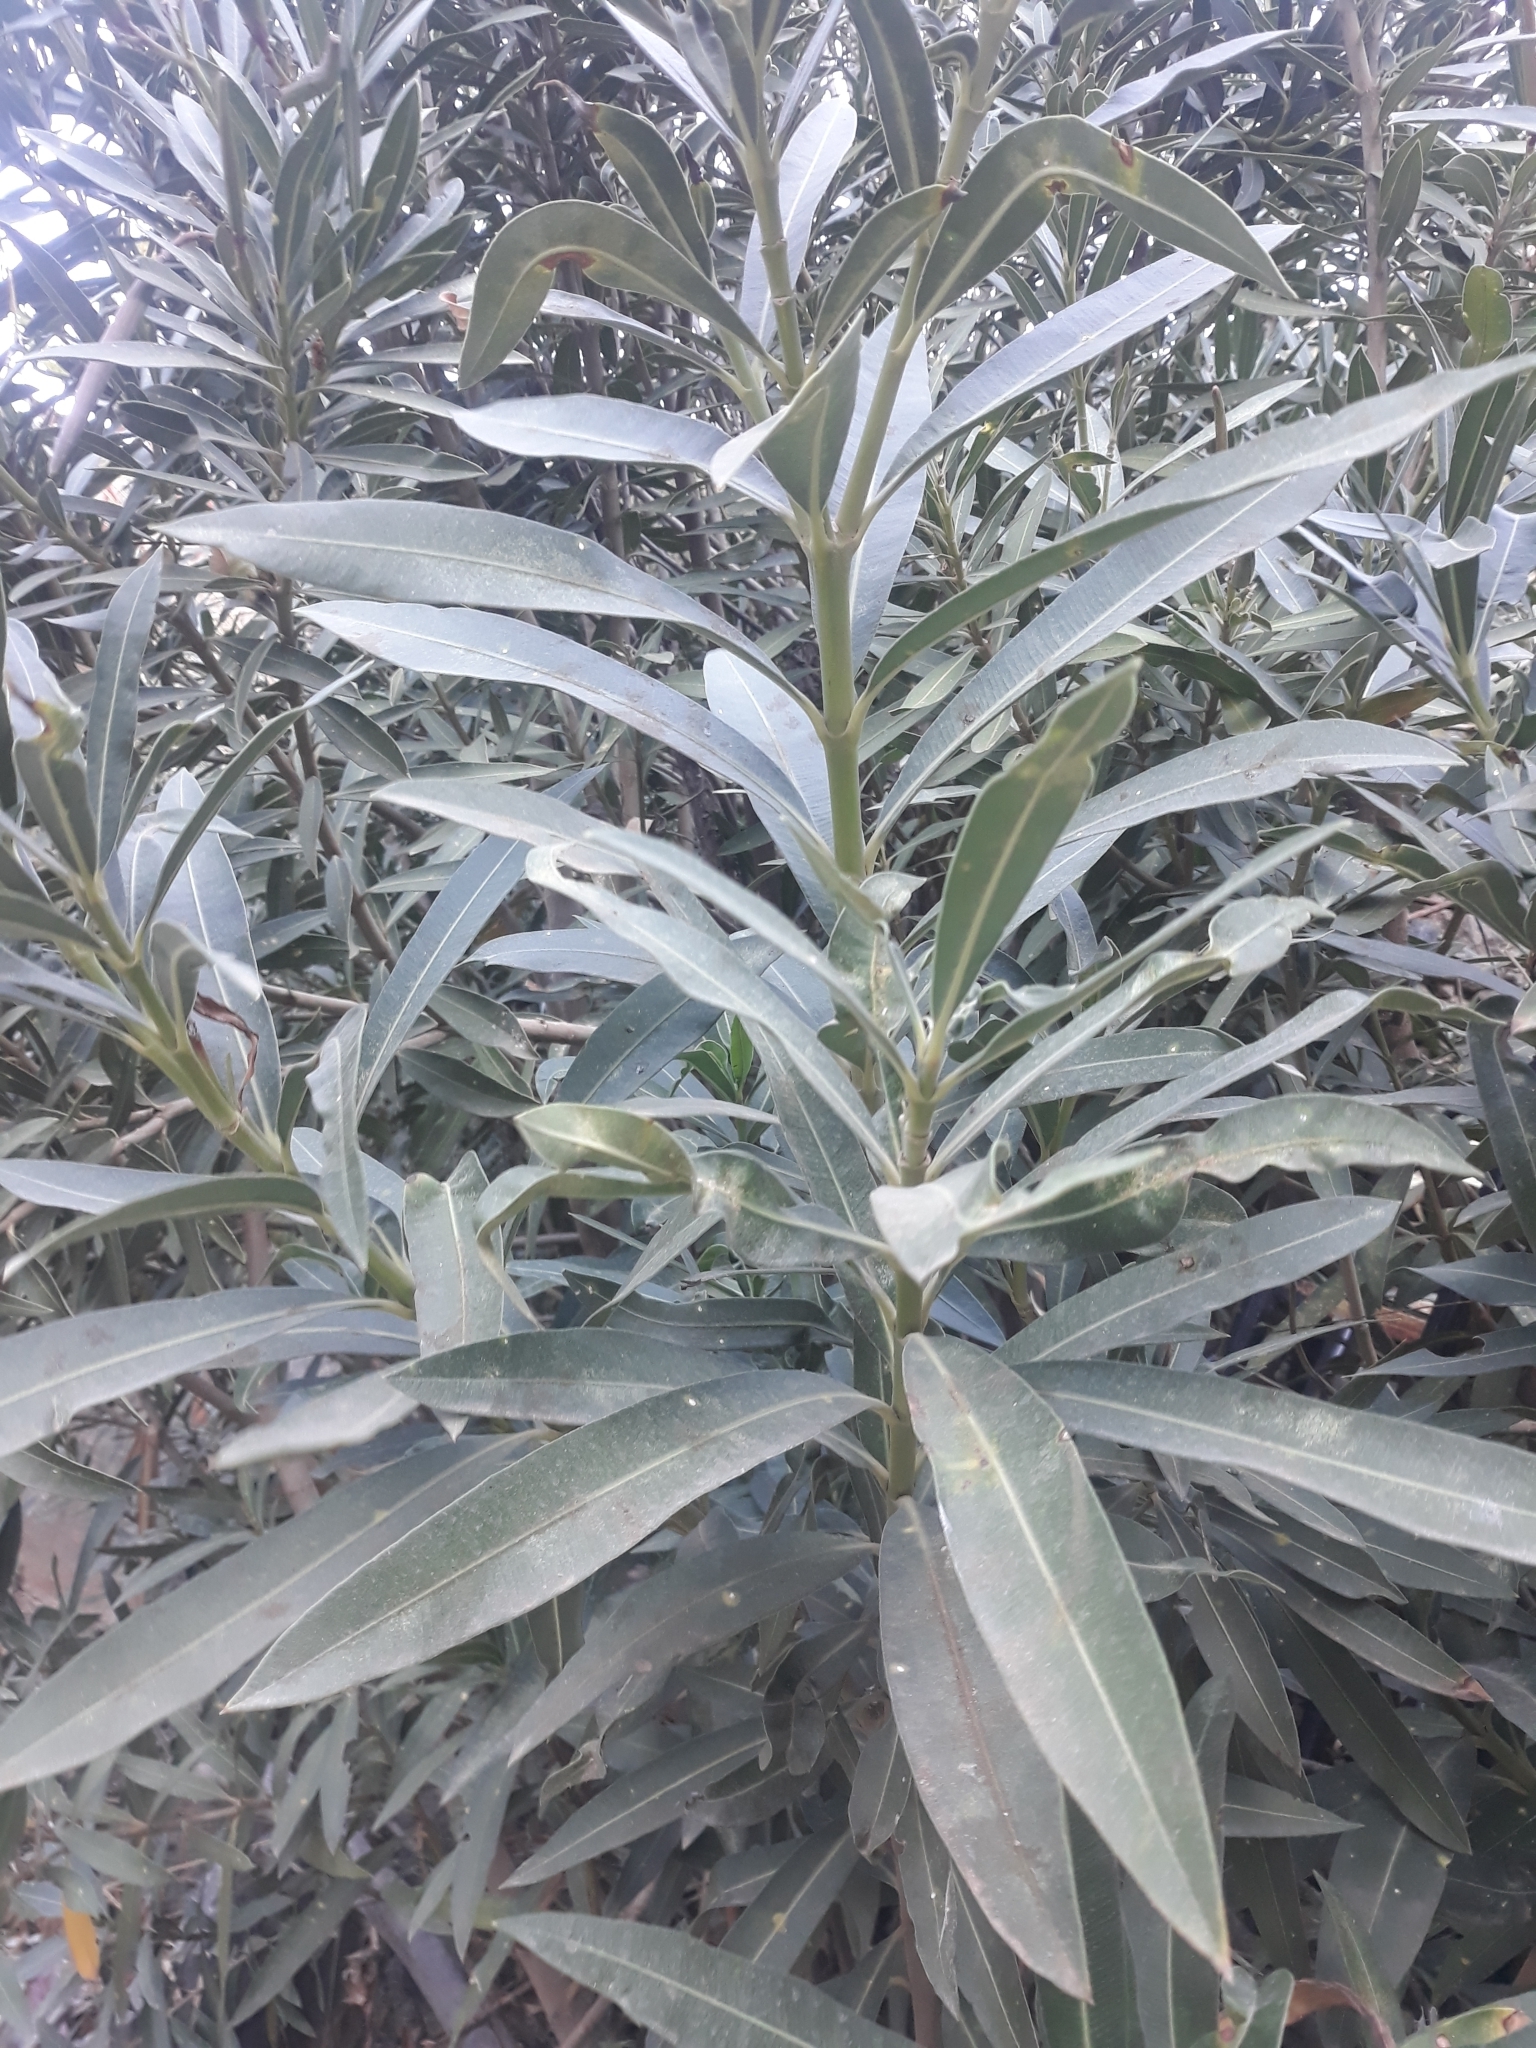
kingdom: Plantae
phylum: Tracheophyta
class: Magnoliopsida
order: Gentianales
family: Apocynaceae
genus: Nerium
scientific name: Nerium oleander
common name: Oleander
